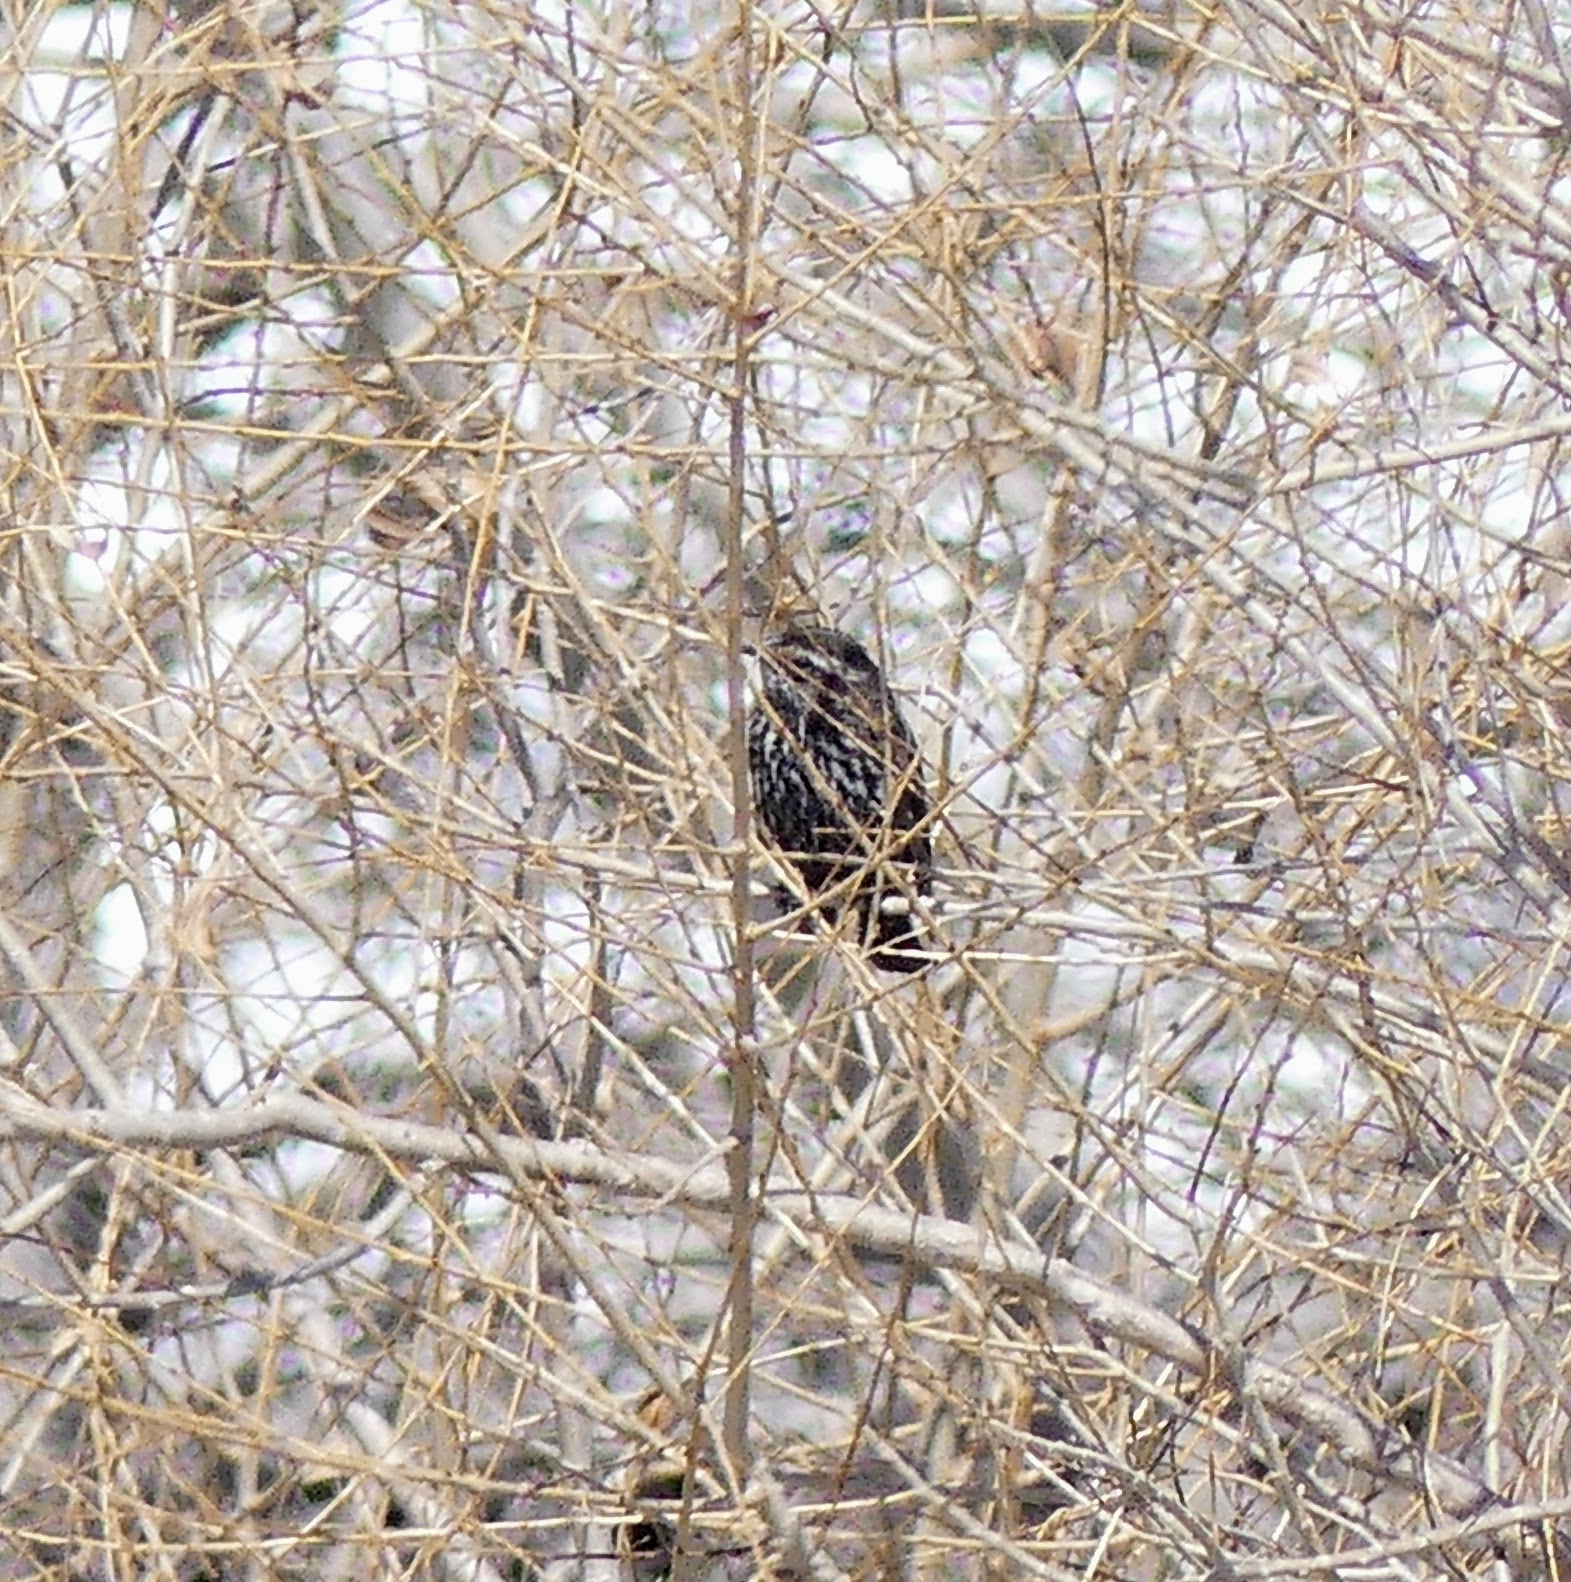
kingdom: Animalia
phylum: Chordata
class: Aves
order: Passeriformes
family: Icteridae
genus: Agelaius
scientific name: Agelaius phoeniceus
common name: Red-winged blackbird
